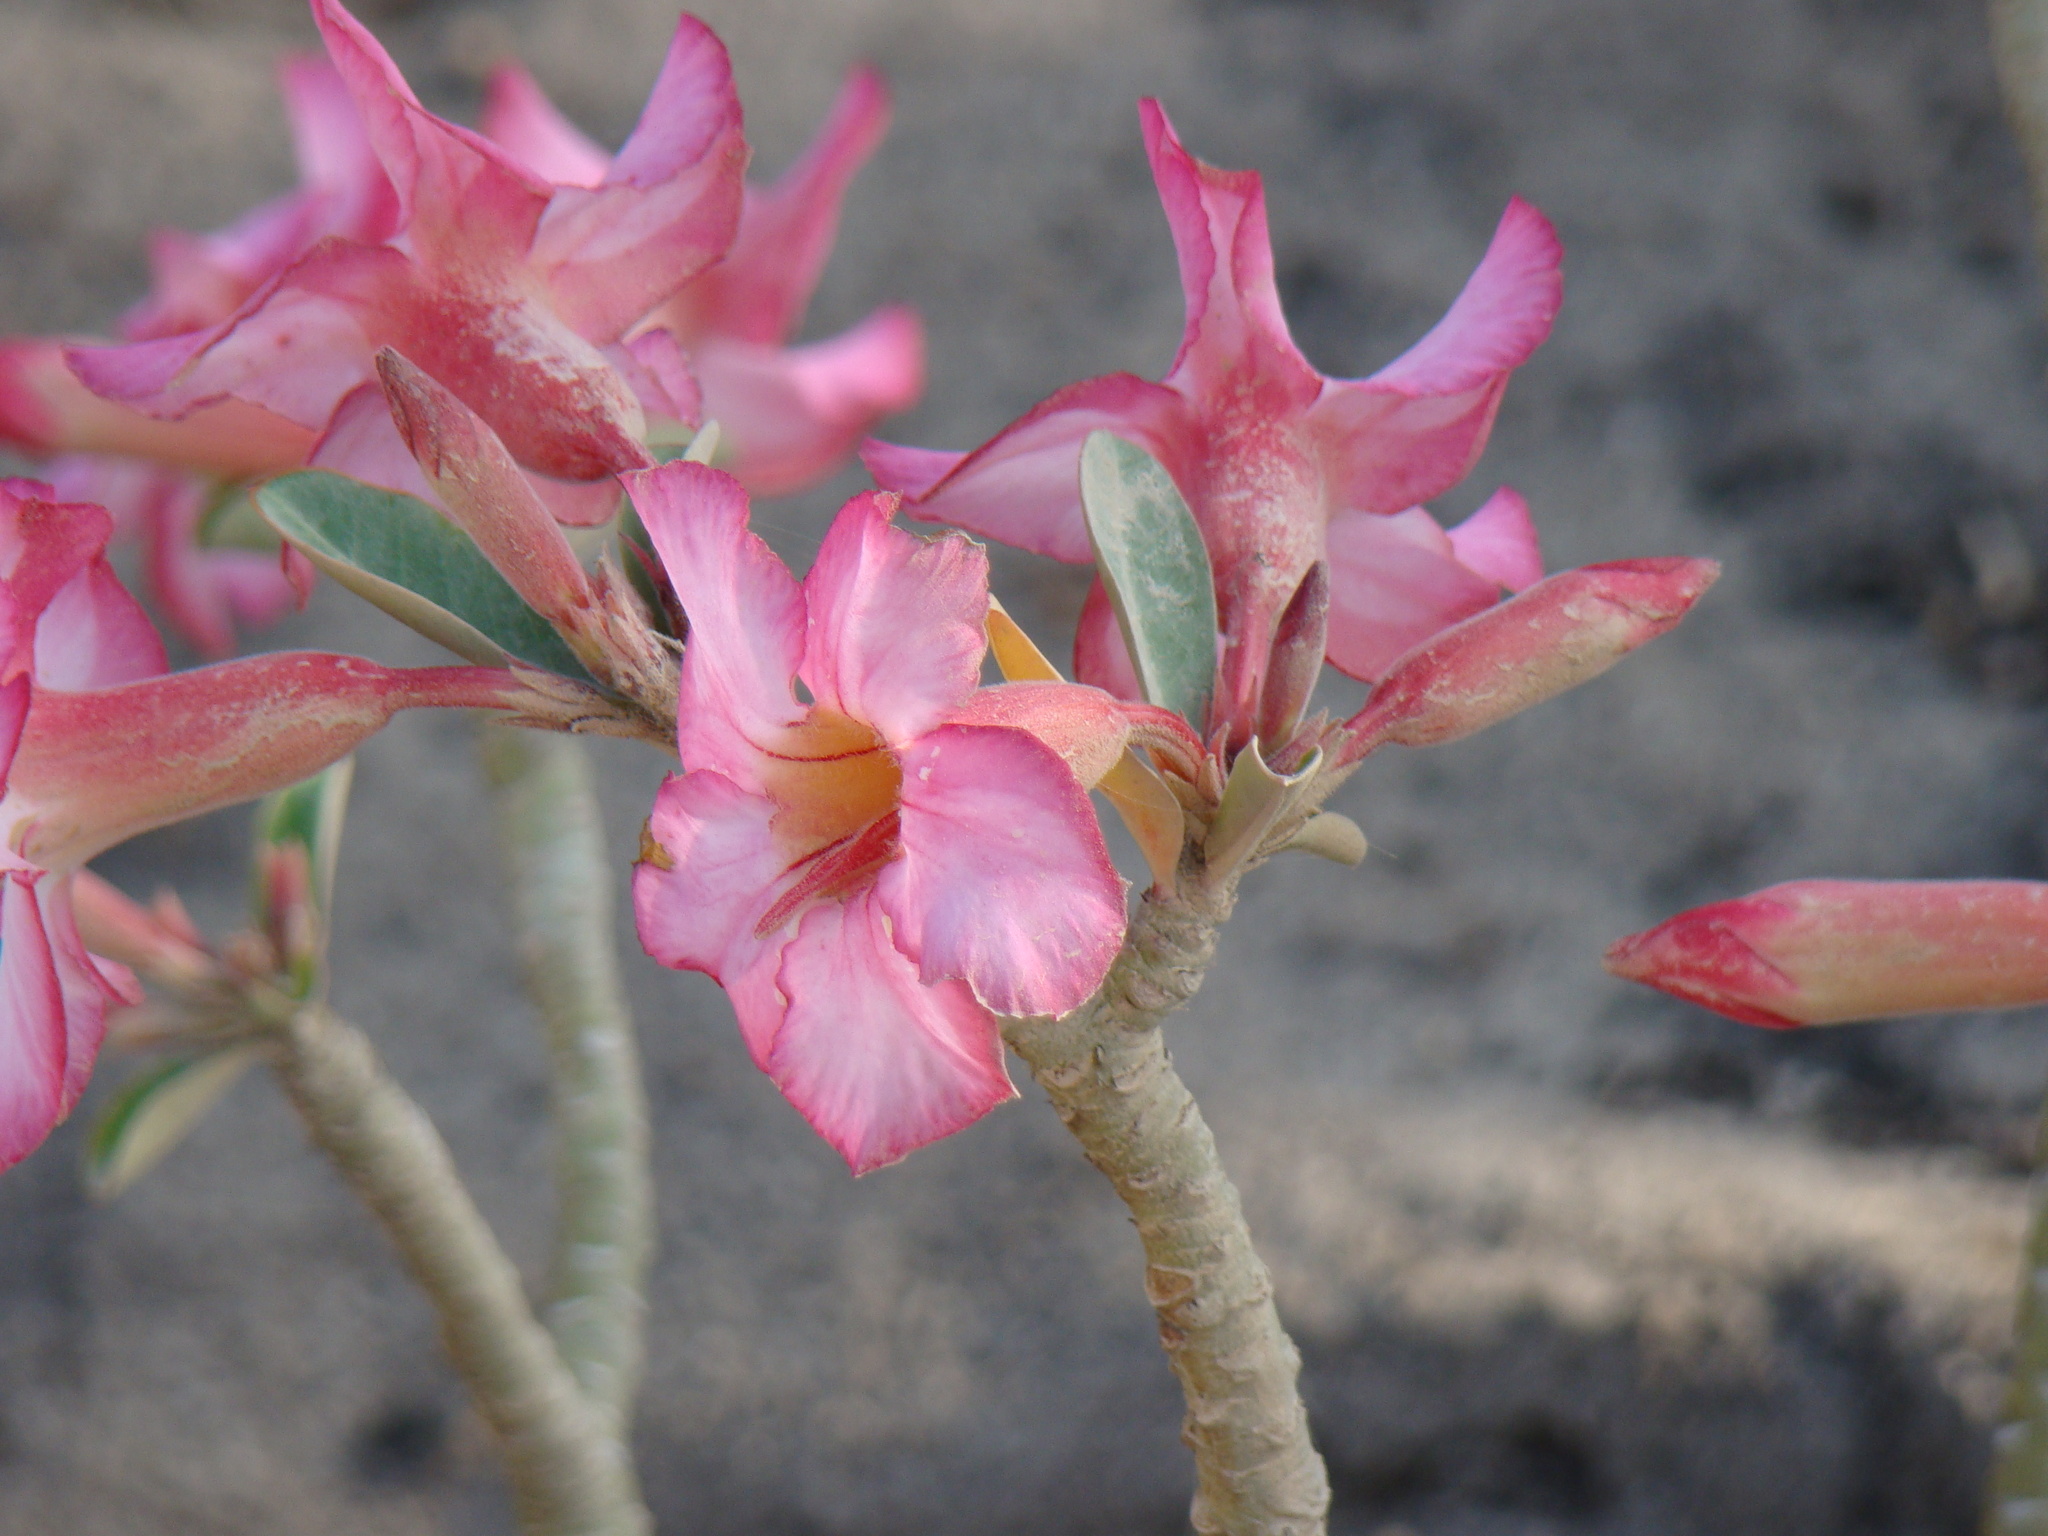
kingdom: Plantae
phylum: Tracheophyta
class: Magnoliopsida
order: Gentianales
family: Apocynaceae
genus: Adenium
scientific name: Adenium obesum
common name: Desert-rose
